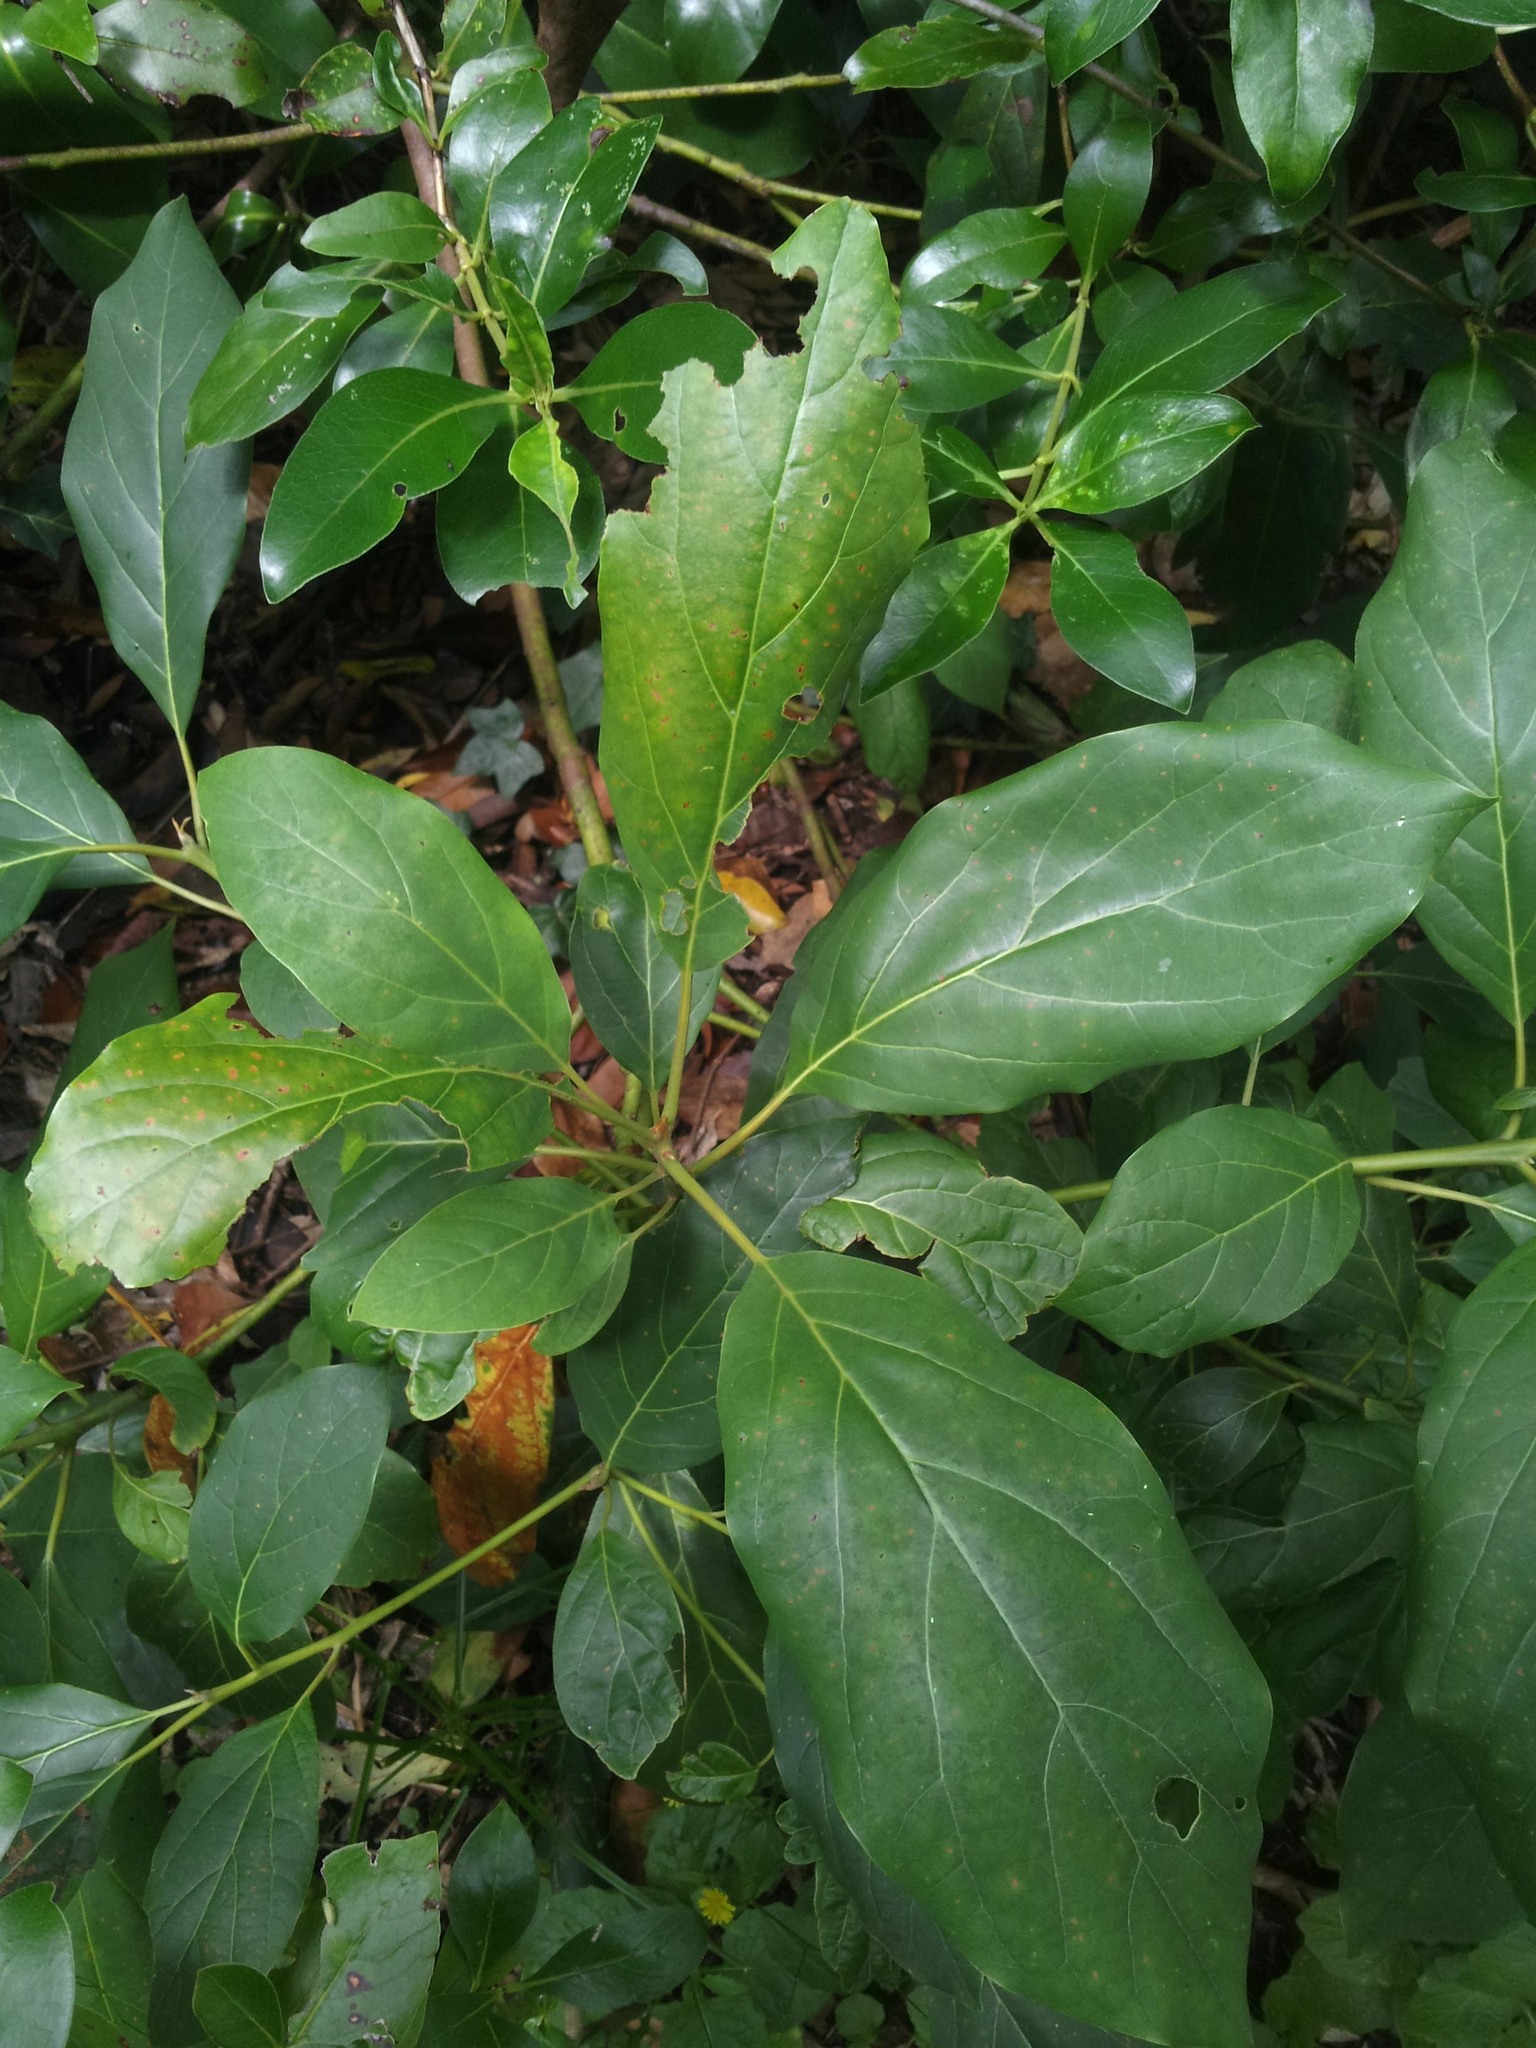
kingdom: Plantae
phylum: Tracheophyta
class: Magnoliopsida
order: Laurales
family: Lauraceae
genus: Persea
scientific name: Persea americana
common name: Avocado
